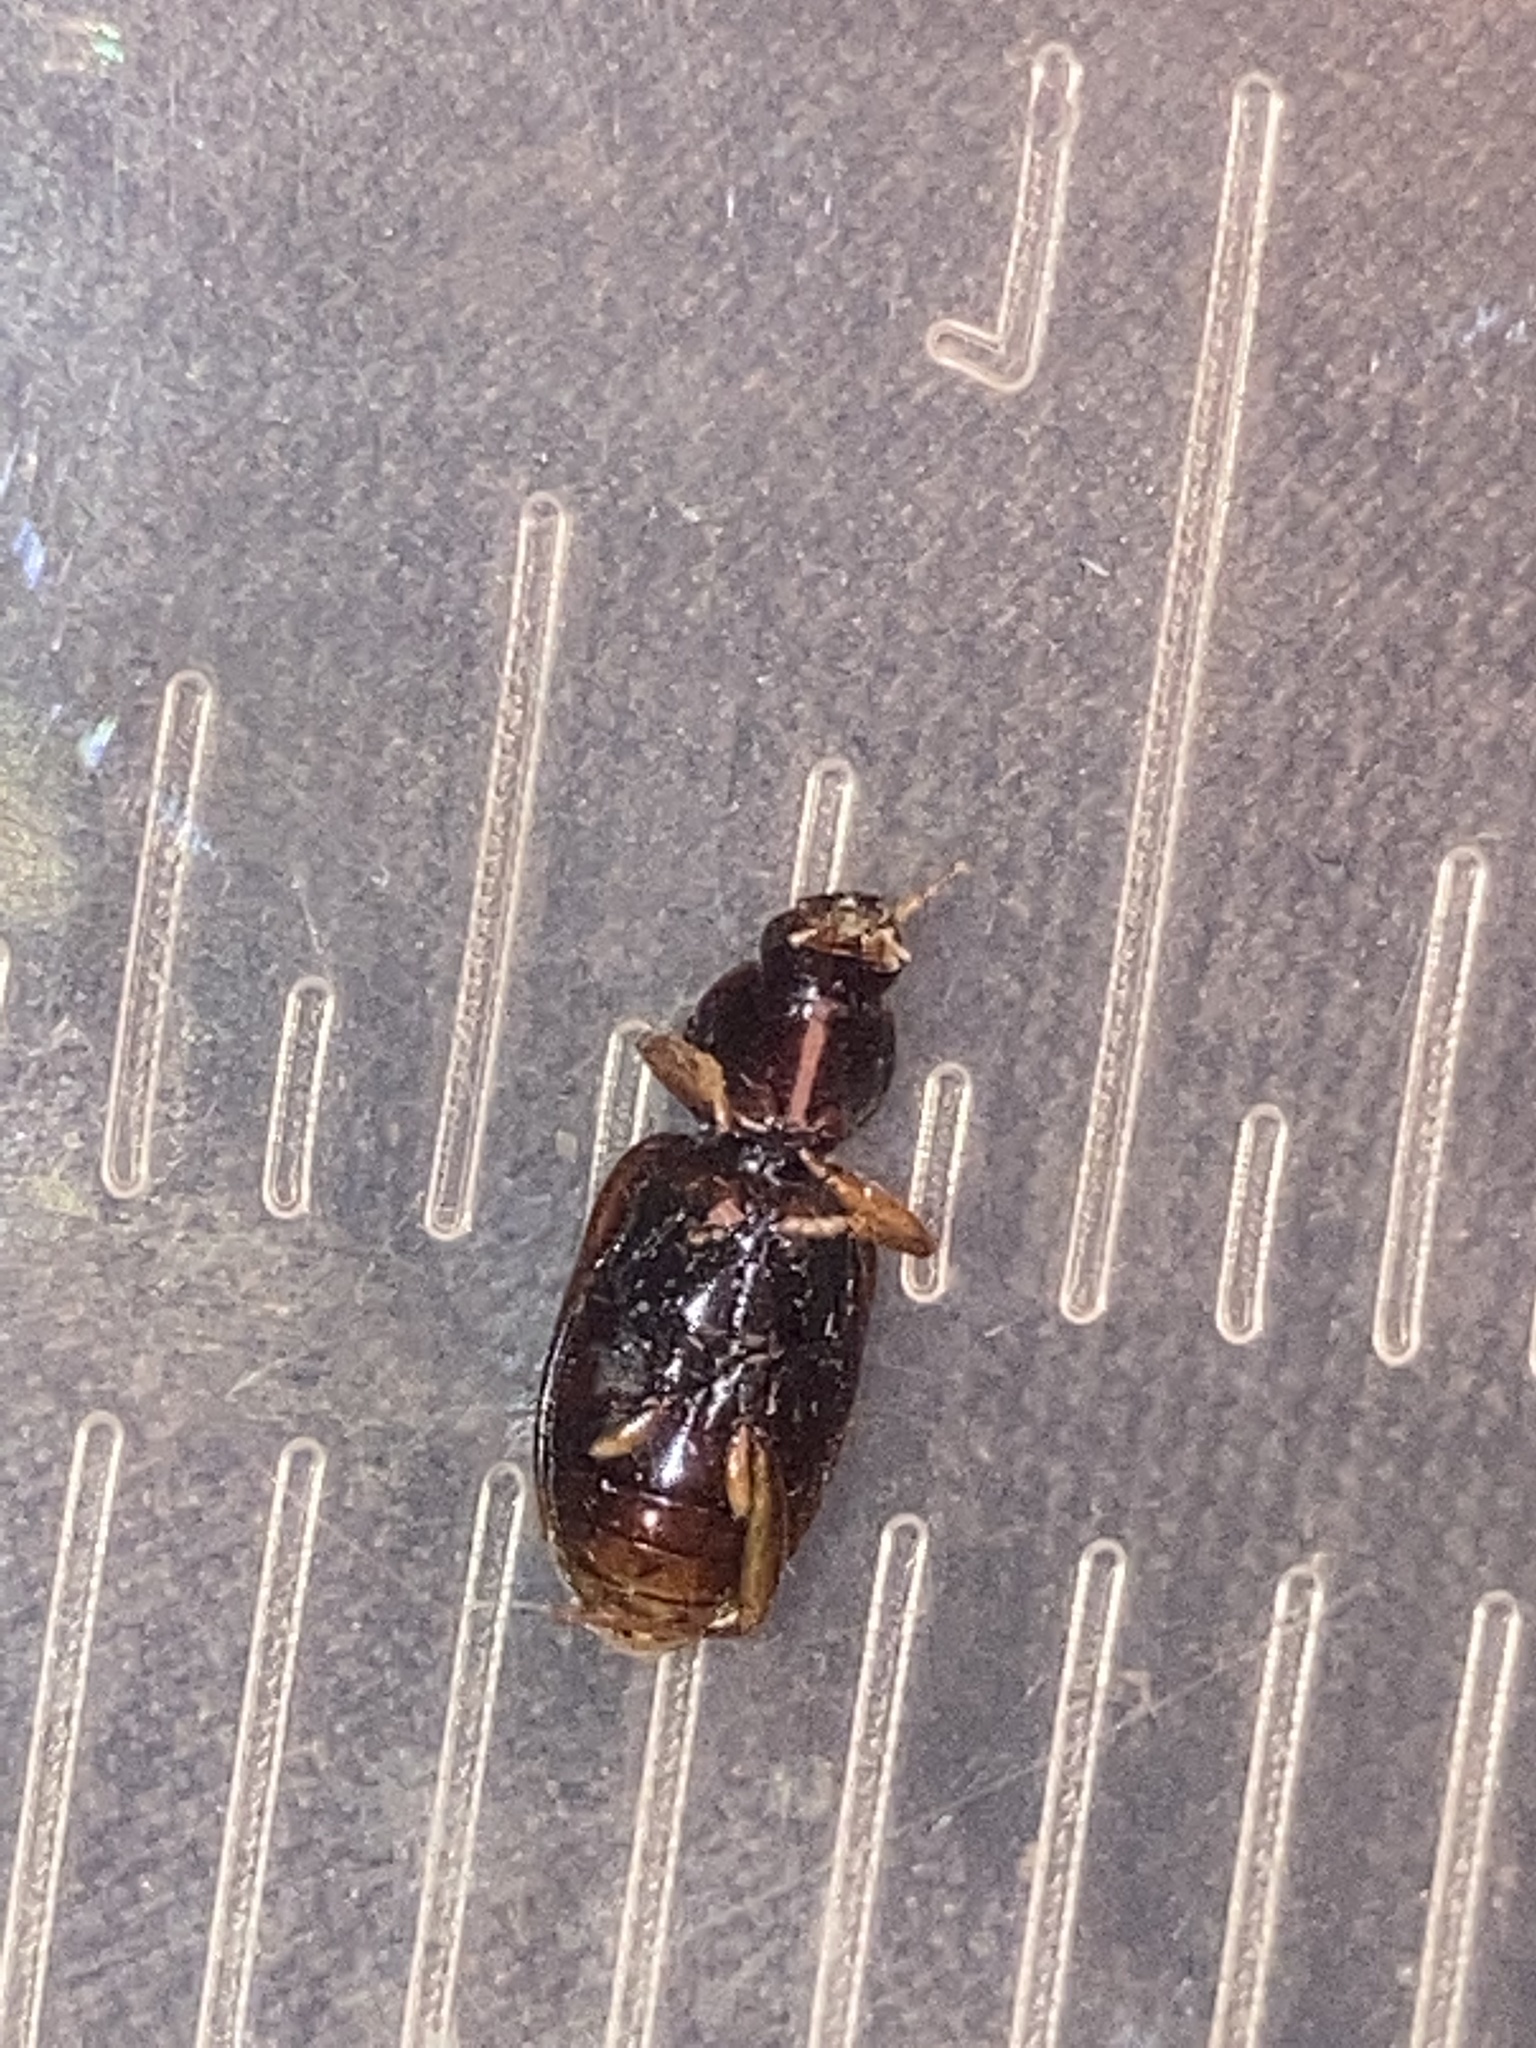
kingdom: Animalia
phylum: Arthropoda
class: Insecta
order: Coleoptera
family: Carabidae
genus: Agonum
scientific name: Agonum punctiforme
